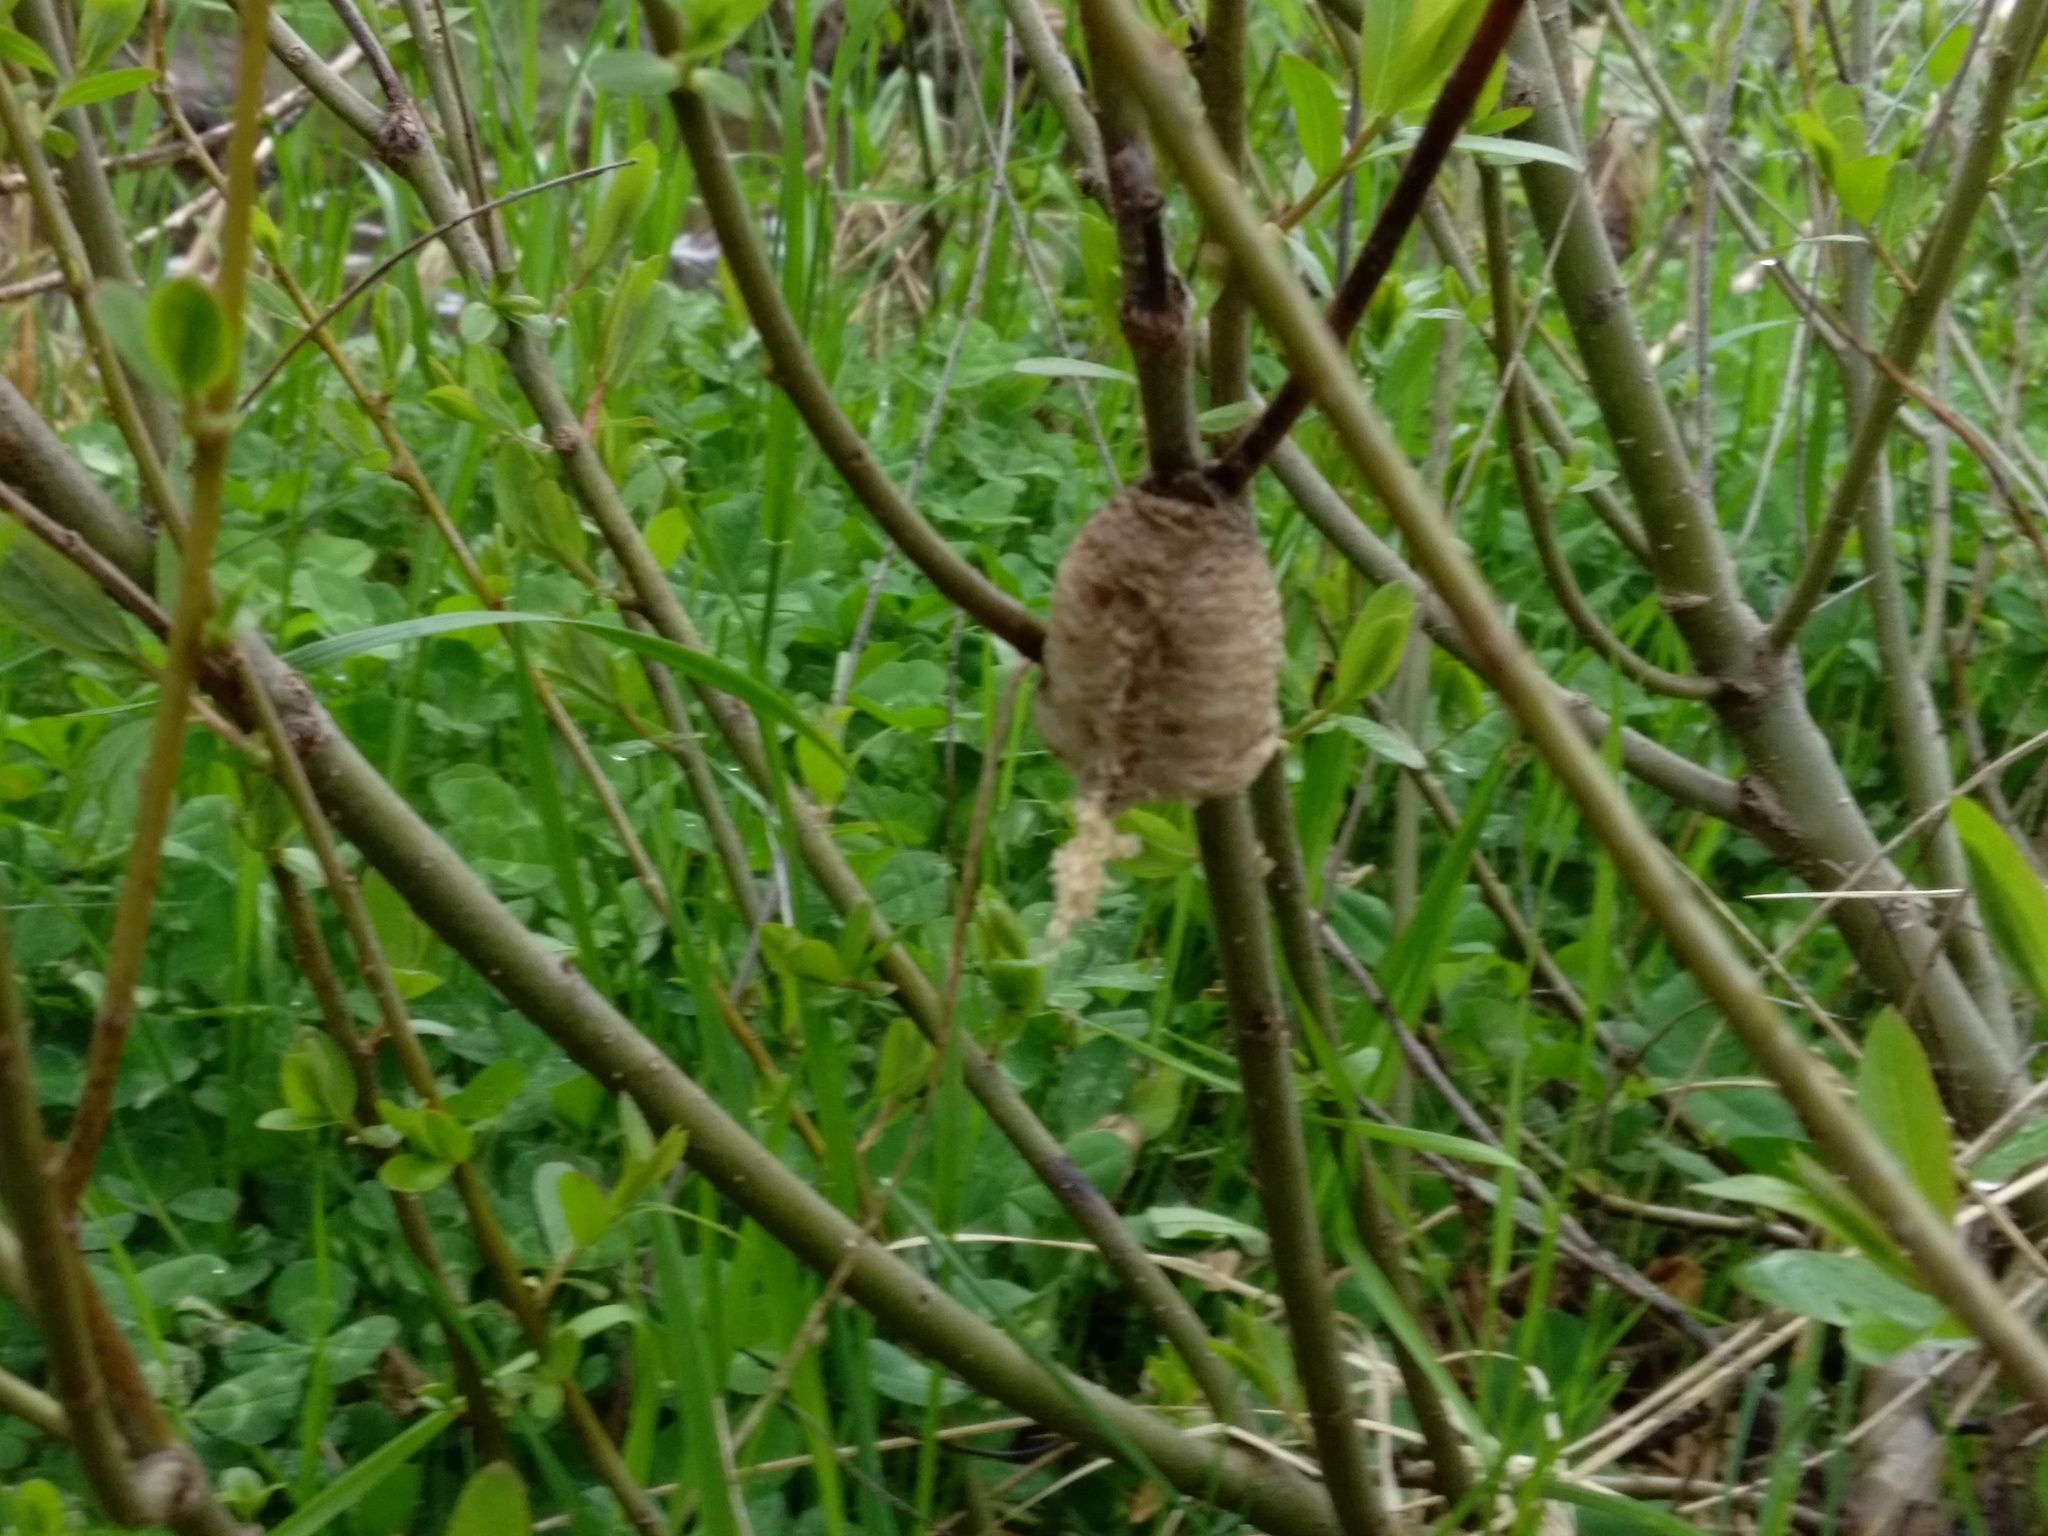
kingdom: Animalia
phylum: Arthropoda
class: Insecta
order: Mantodea
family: Mantidae
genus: Tenodera
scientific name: Tenodera sinensis
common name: Chinese mantis
